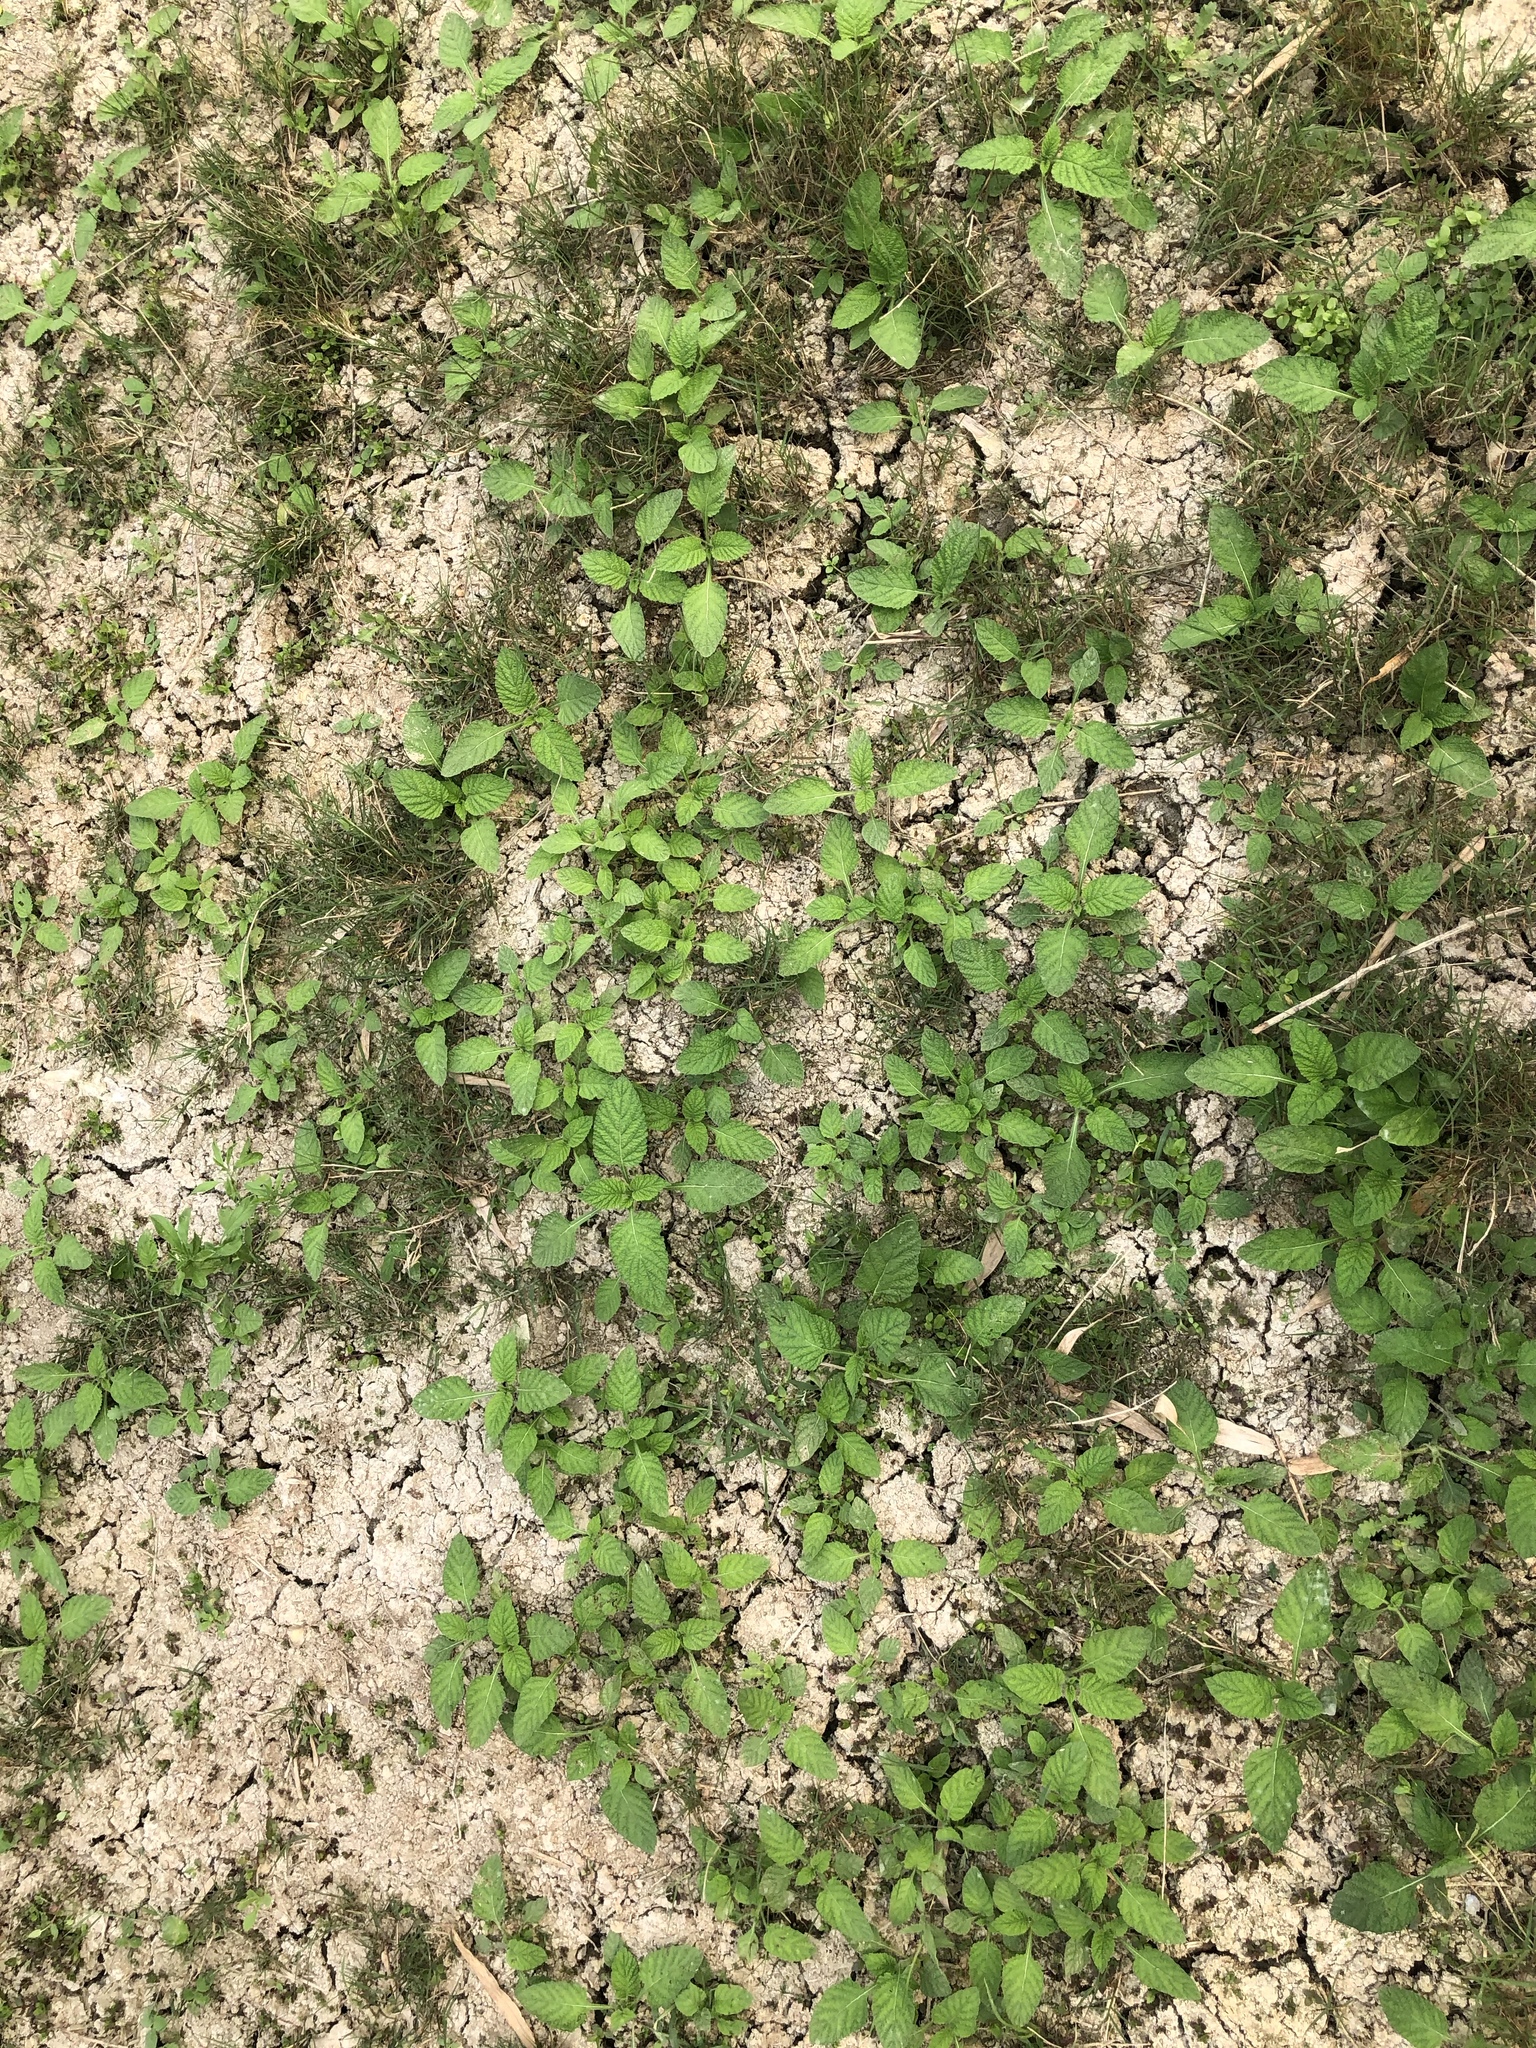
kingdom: Plantae
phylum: Tracheophyta
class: Magnoliopsida
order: Boraginales
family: Heliotropiaceae
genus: Heliotropium
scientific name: Heliotropium indicum
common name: Indian heliotrope
